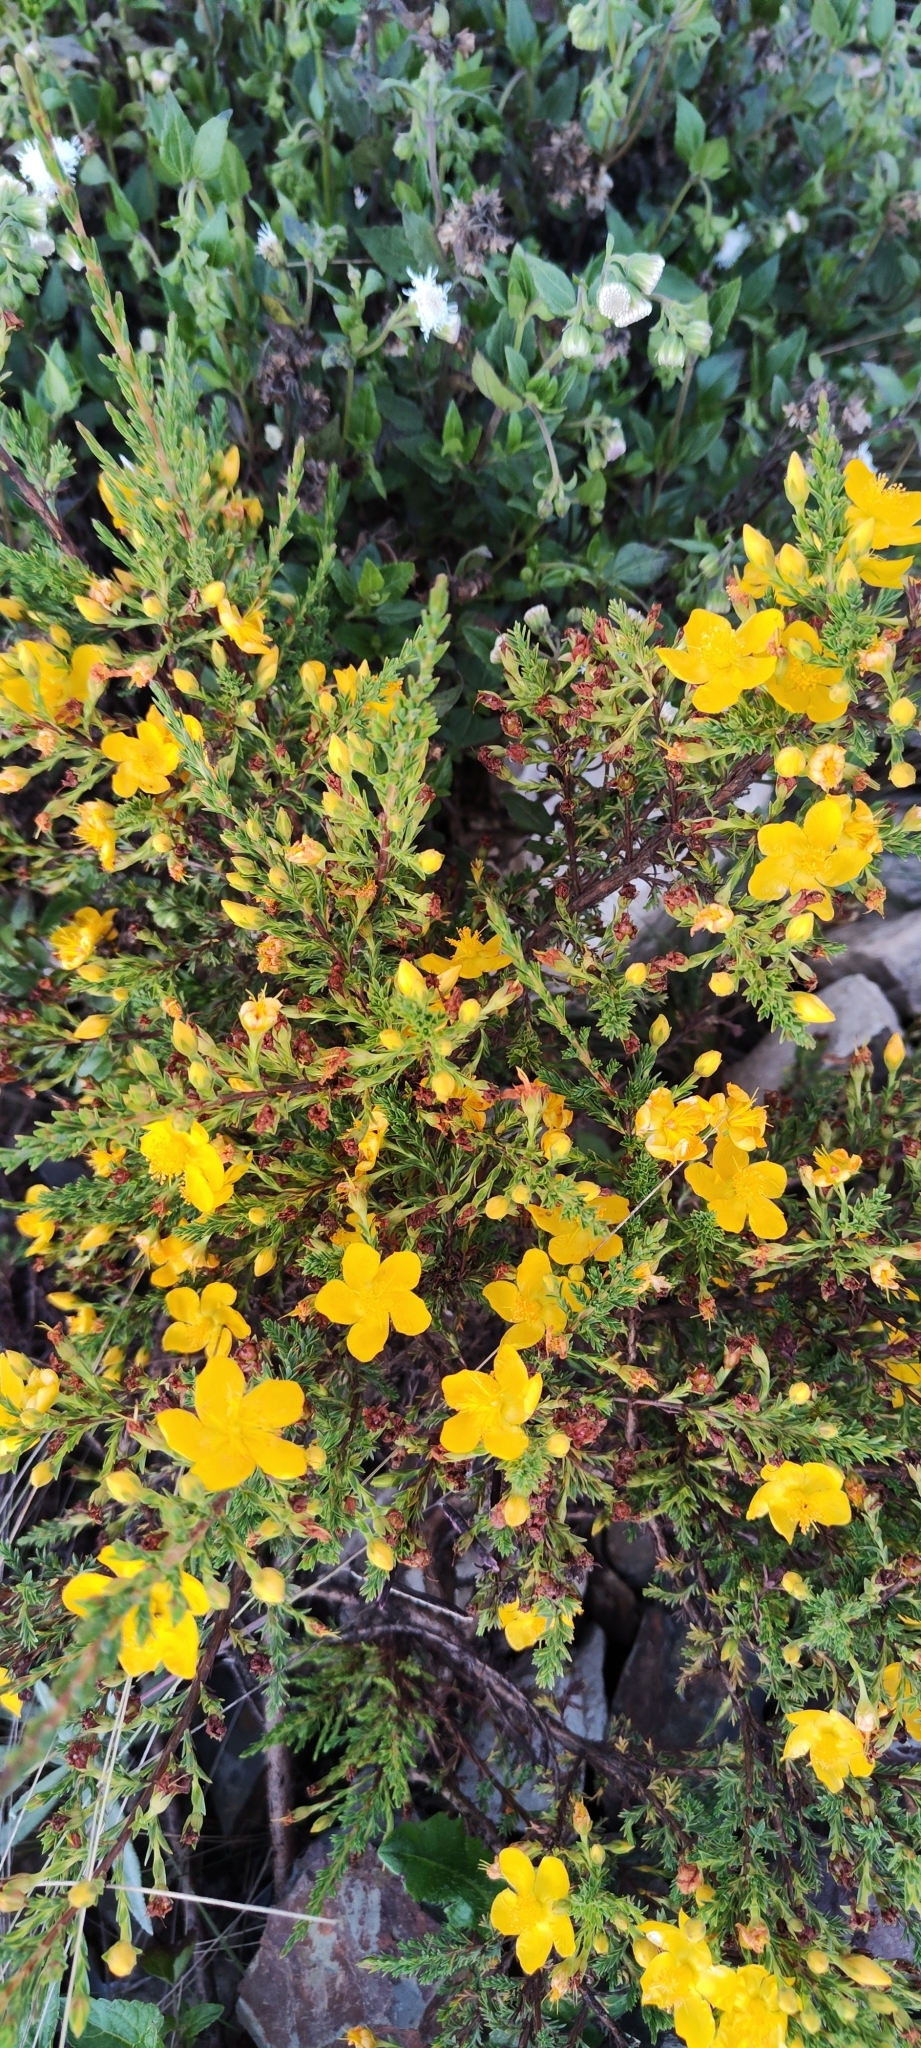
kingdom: Plantae
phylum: Tracheophyta
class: Magnoliopsida
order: Malpighiales
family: Hypericaceae
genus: Hypericum
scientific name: Hypericum laricifolium
